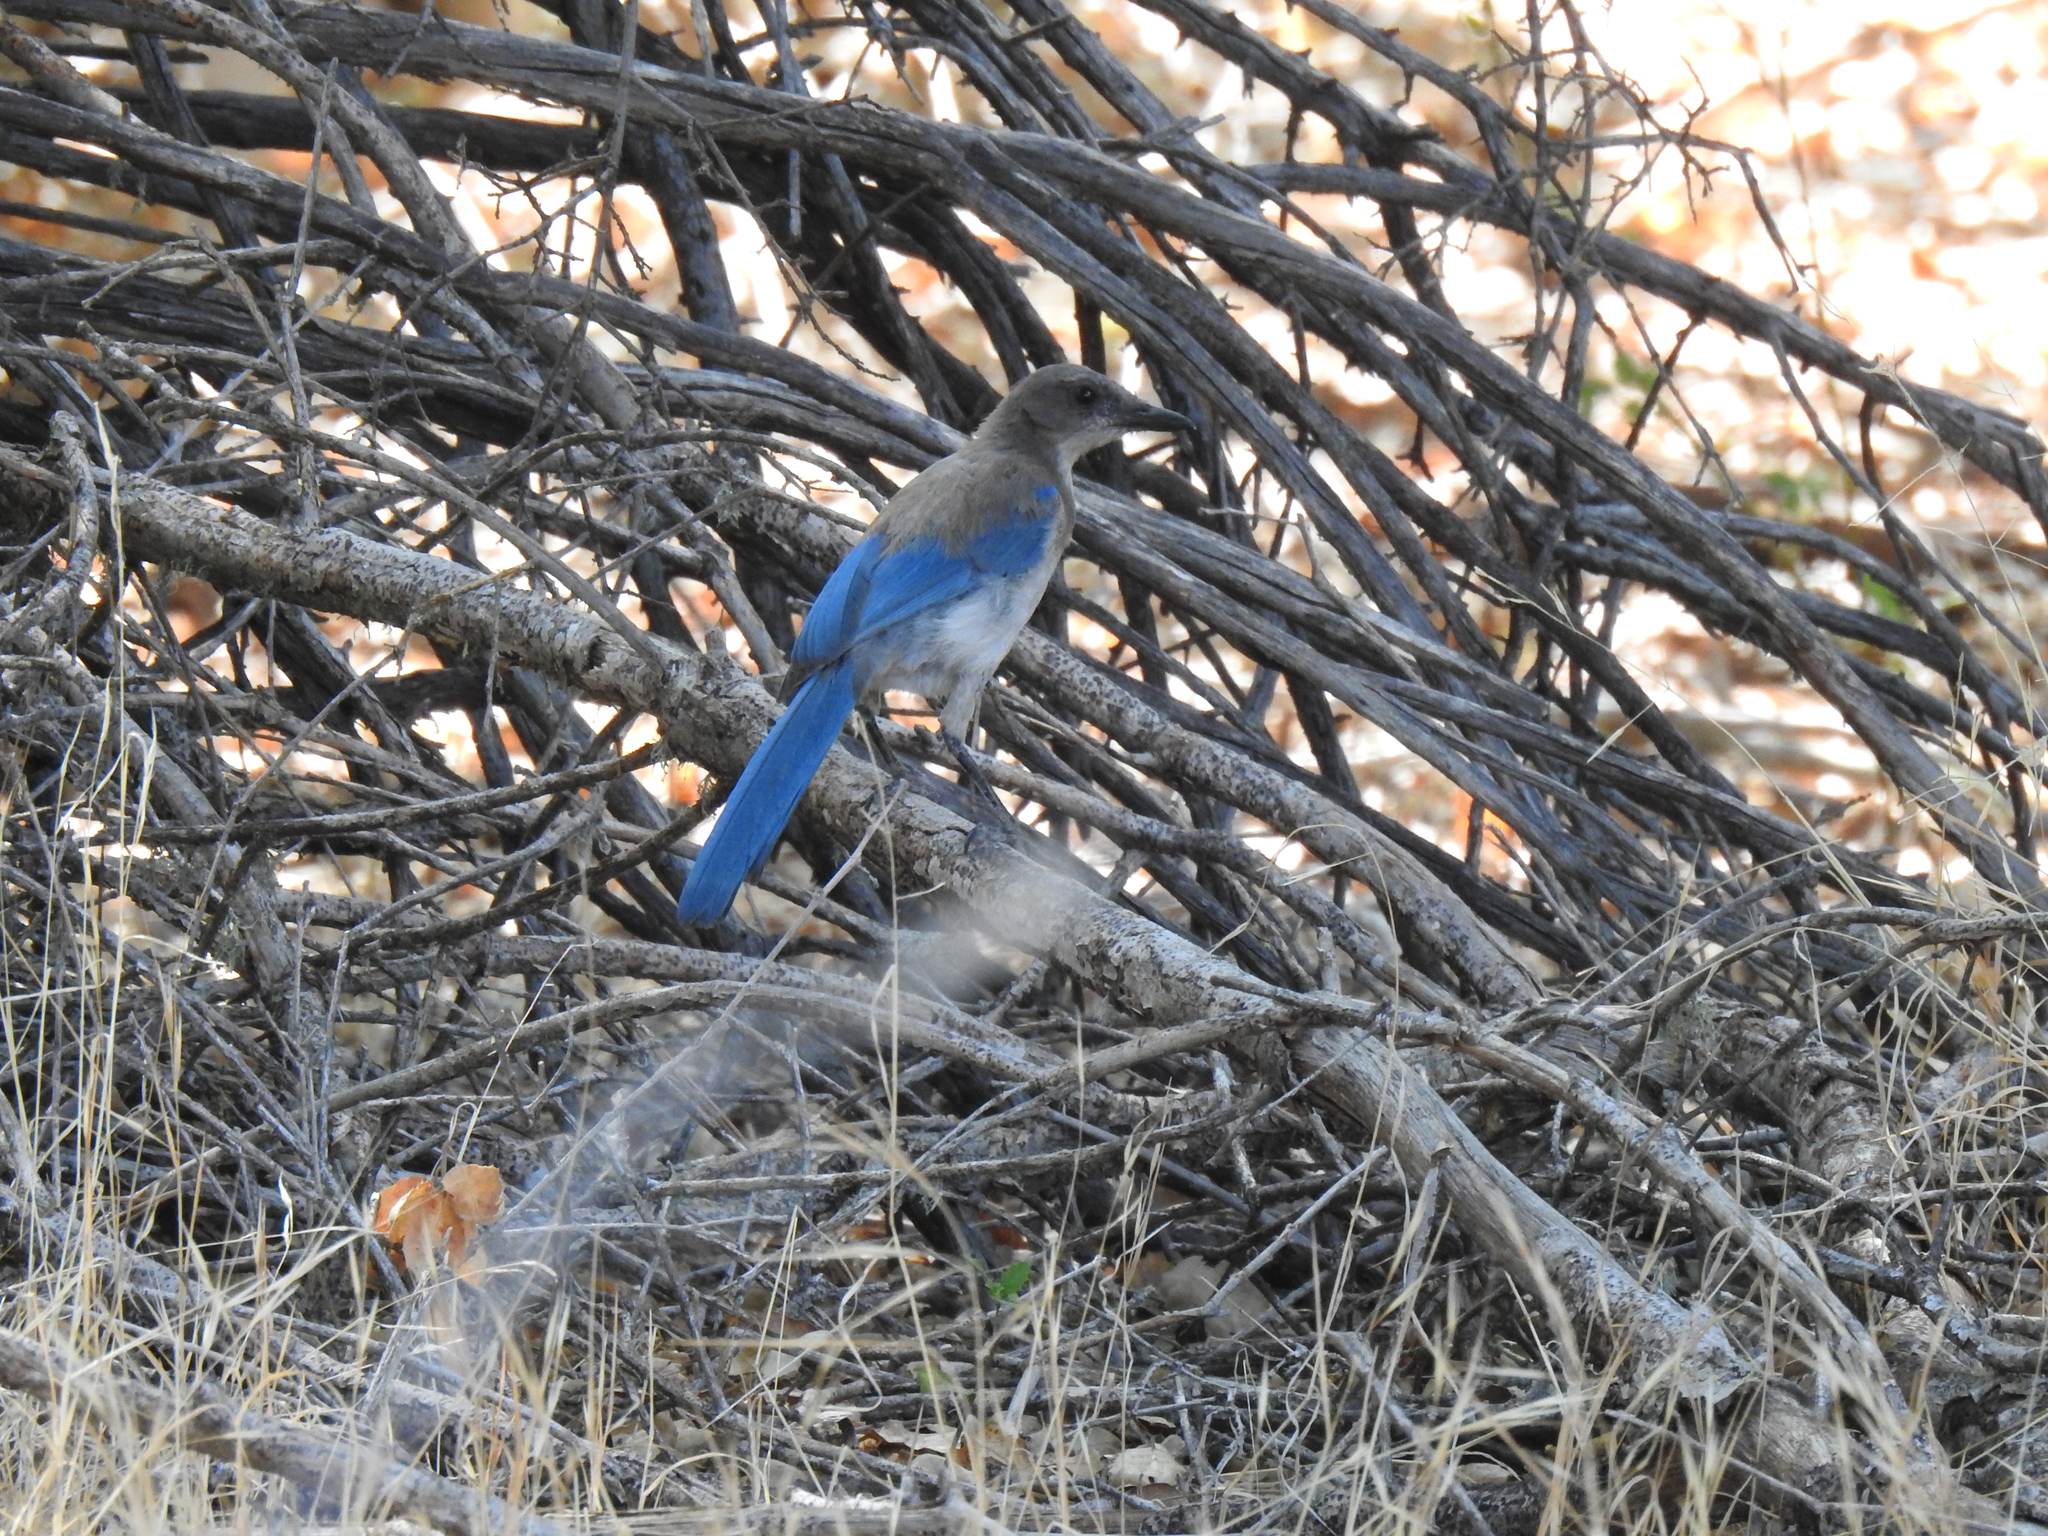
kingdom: Animalia
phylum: Chordata
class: Aves
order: Passeriformes
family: Corvidae
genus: Aphelocoma
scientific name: Aphelocoma californica
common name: California scrub-jay
